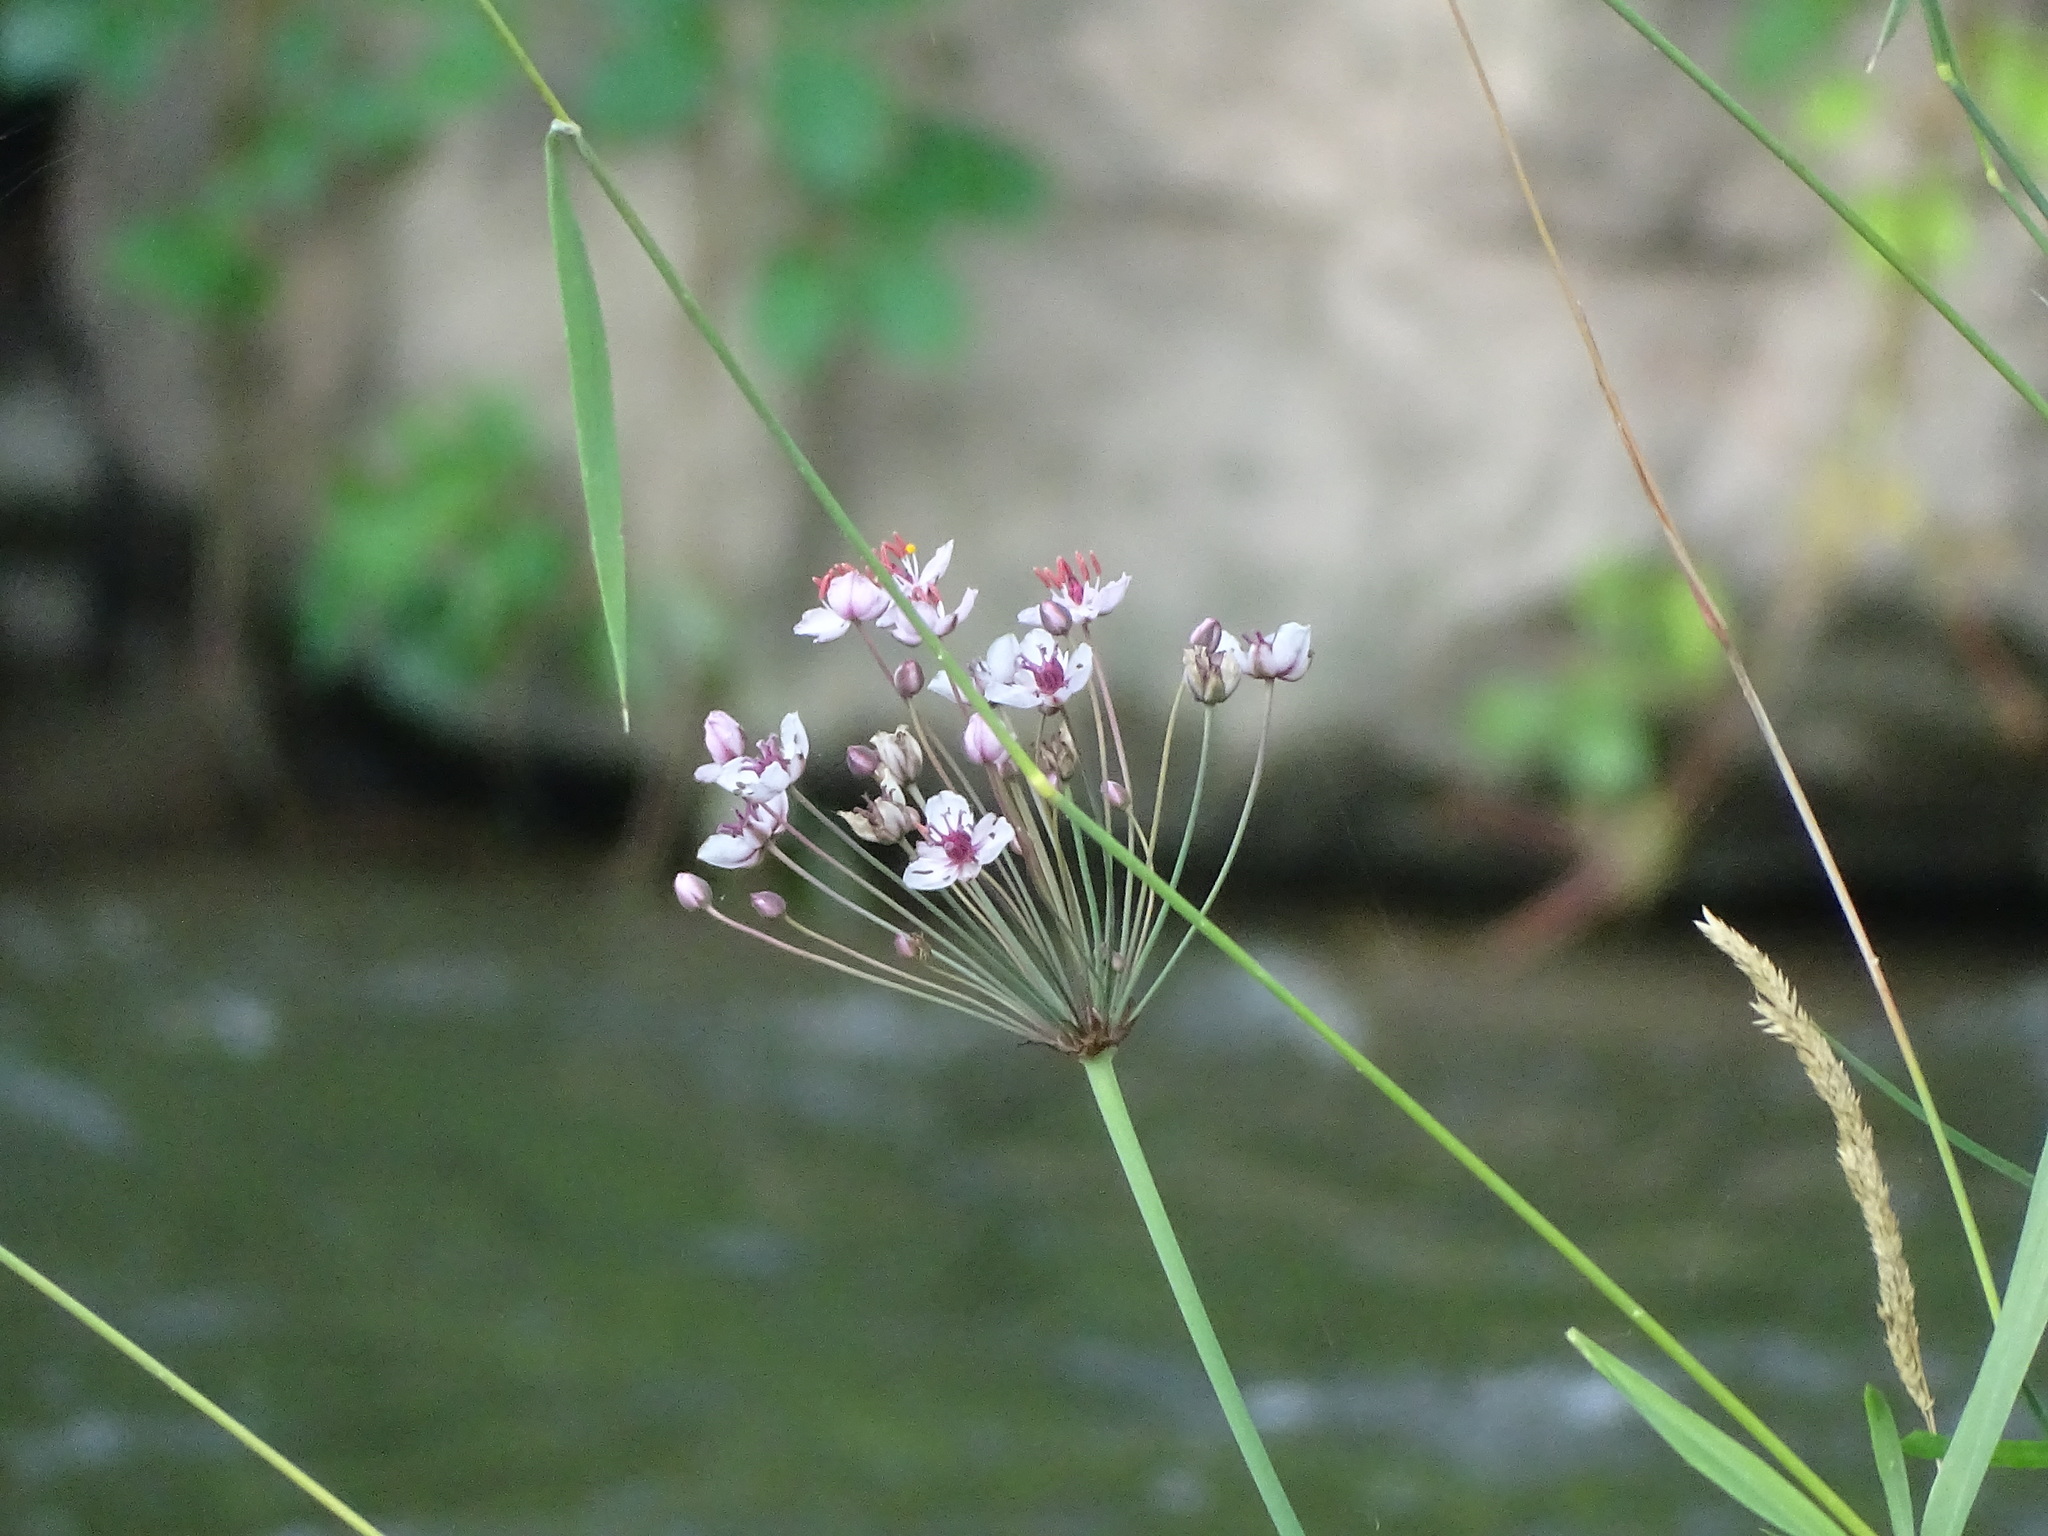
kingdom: Plantae
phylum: Tracheophyta
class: Liliopsida
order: Alismatales
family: Butomaceae
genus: Butomus
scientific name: Butomus umbellatus
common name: Flowering-rush
